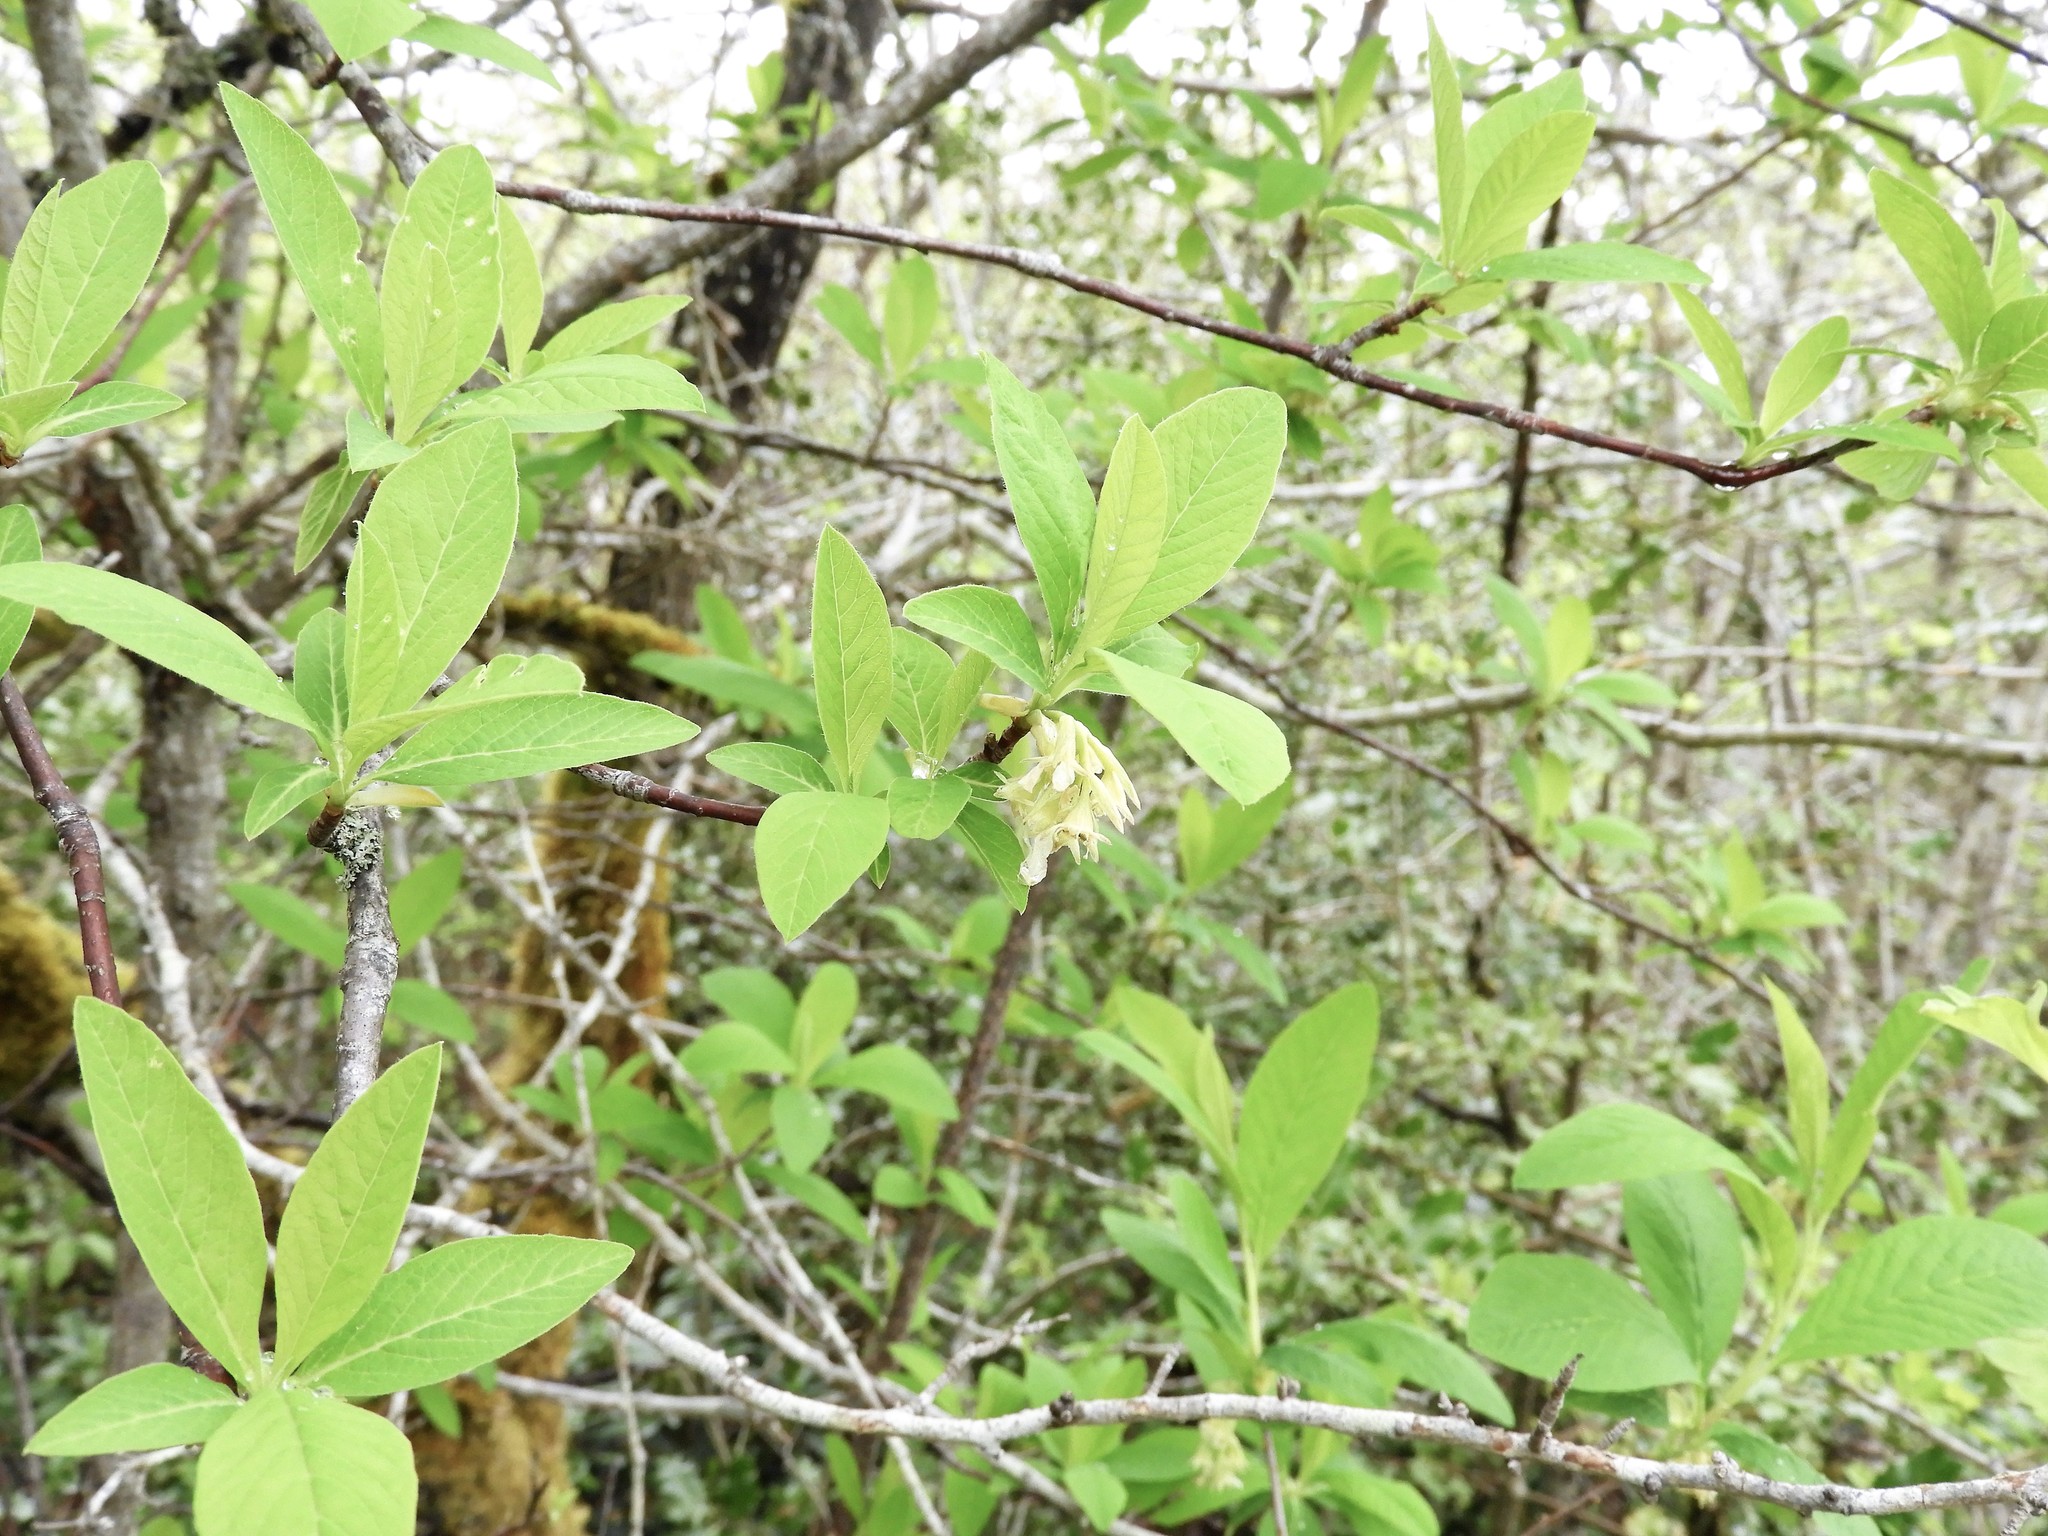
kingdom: Plantae
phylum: Tracheophyta
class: Magnoliopsida
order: Rosales
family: Rosaceae
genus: Oemleria
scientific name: Oemleria cerasiformis
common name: Osoberry
